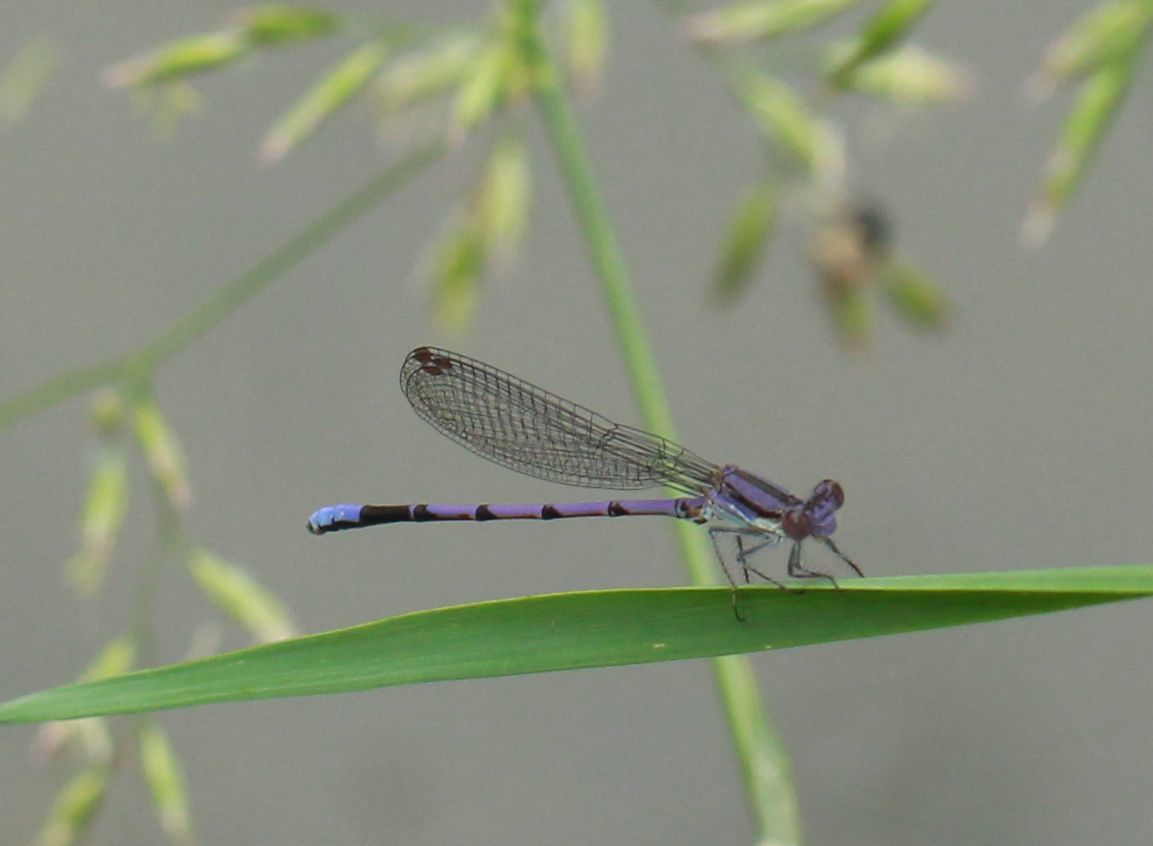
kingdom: Animalia
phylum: Arthropoda
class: Insecta
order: Odonata
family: Coenagrionidae
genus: Argia
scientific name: Argia fumipennis
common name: Variable dancer
